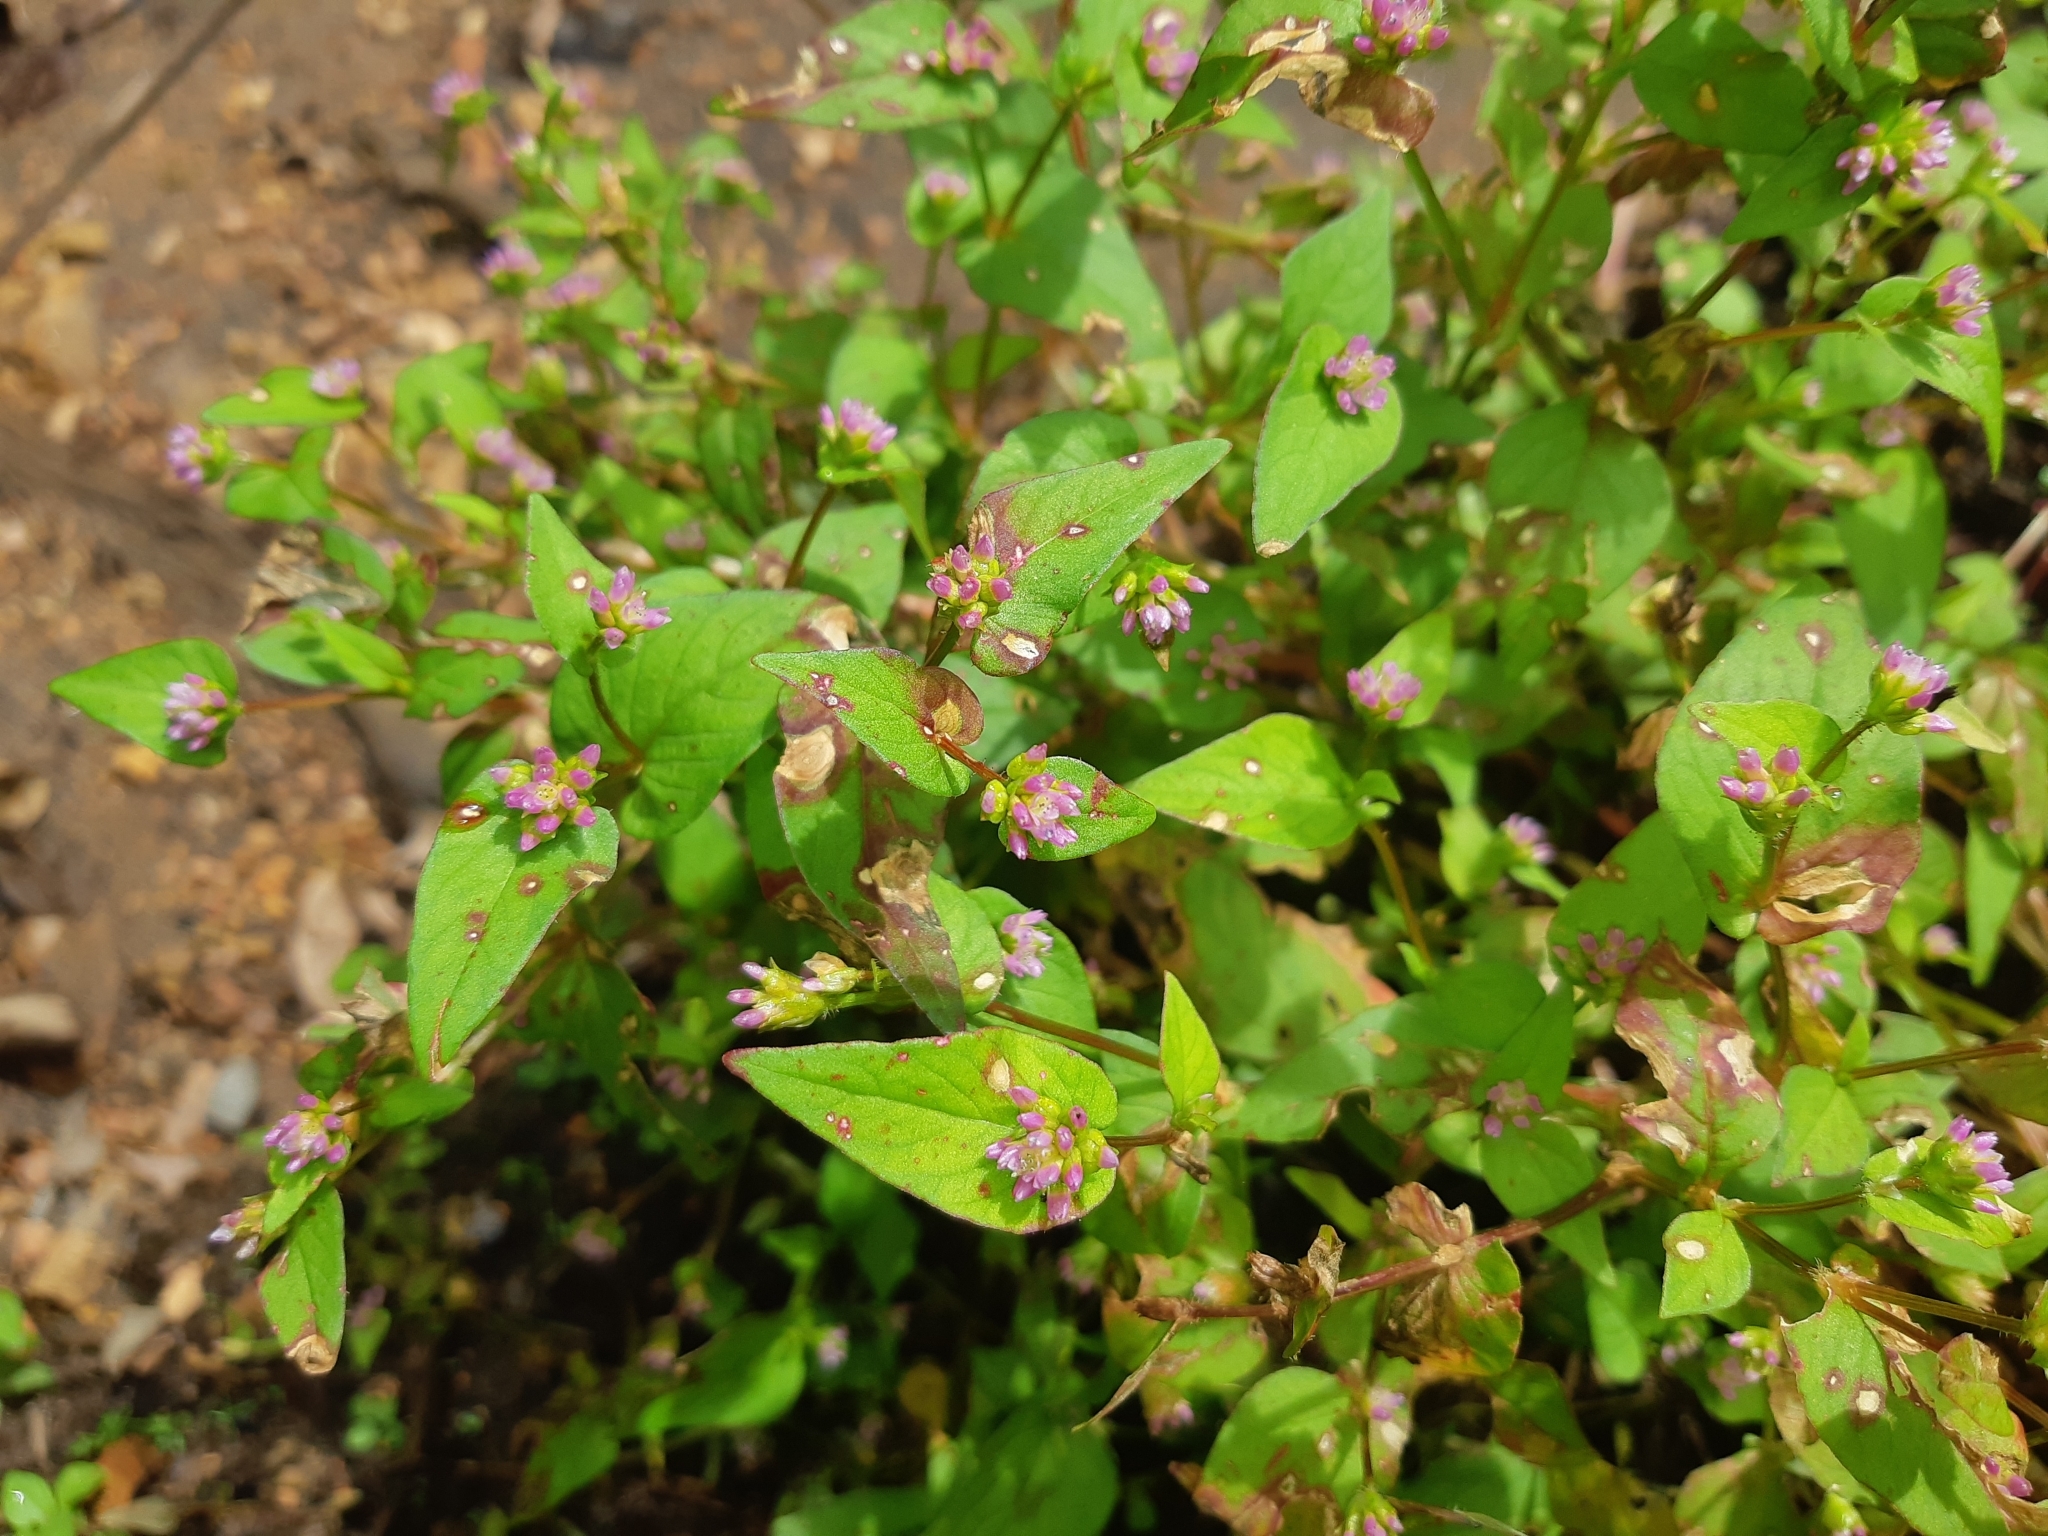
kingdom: Plantae
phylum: Tracheophyta
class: Magnoliopsida
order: Caryophyllales
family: Polygonaceae
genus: Persicaria
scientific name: Persicaria nepalensis
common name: Nepal persicaria
